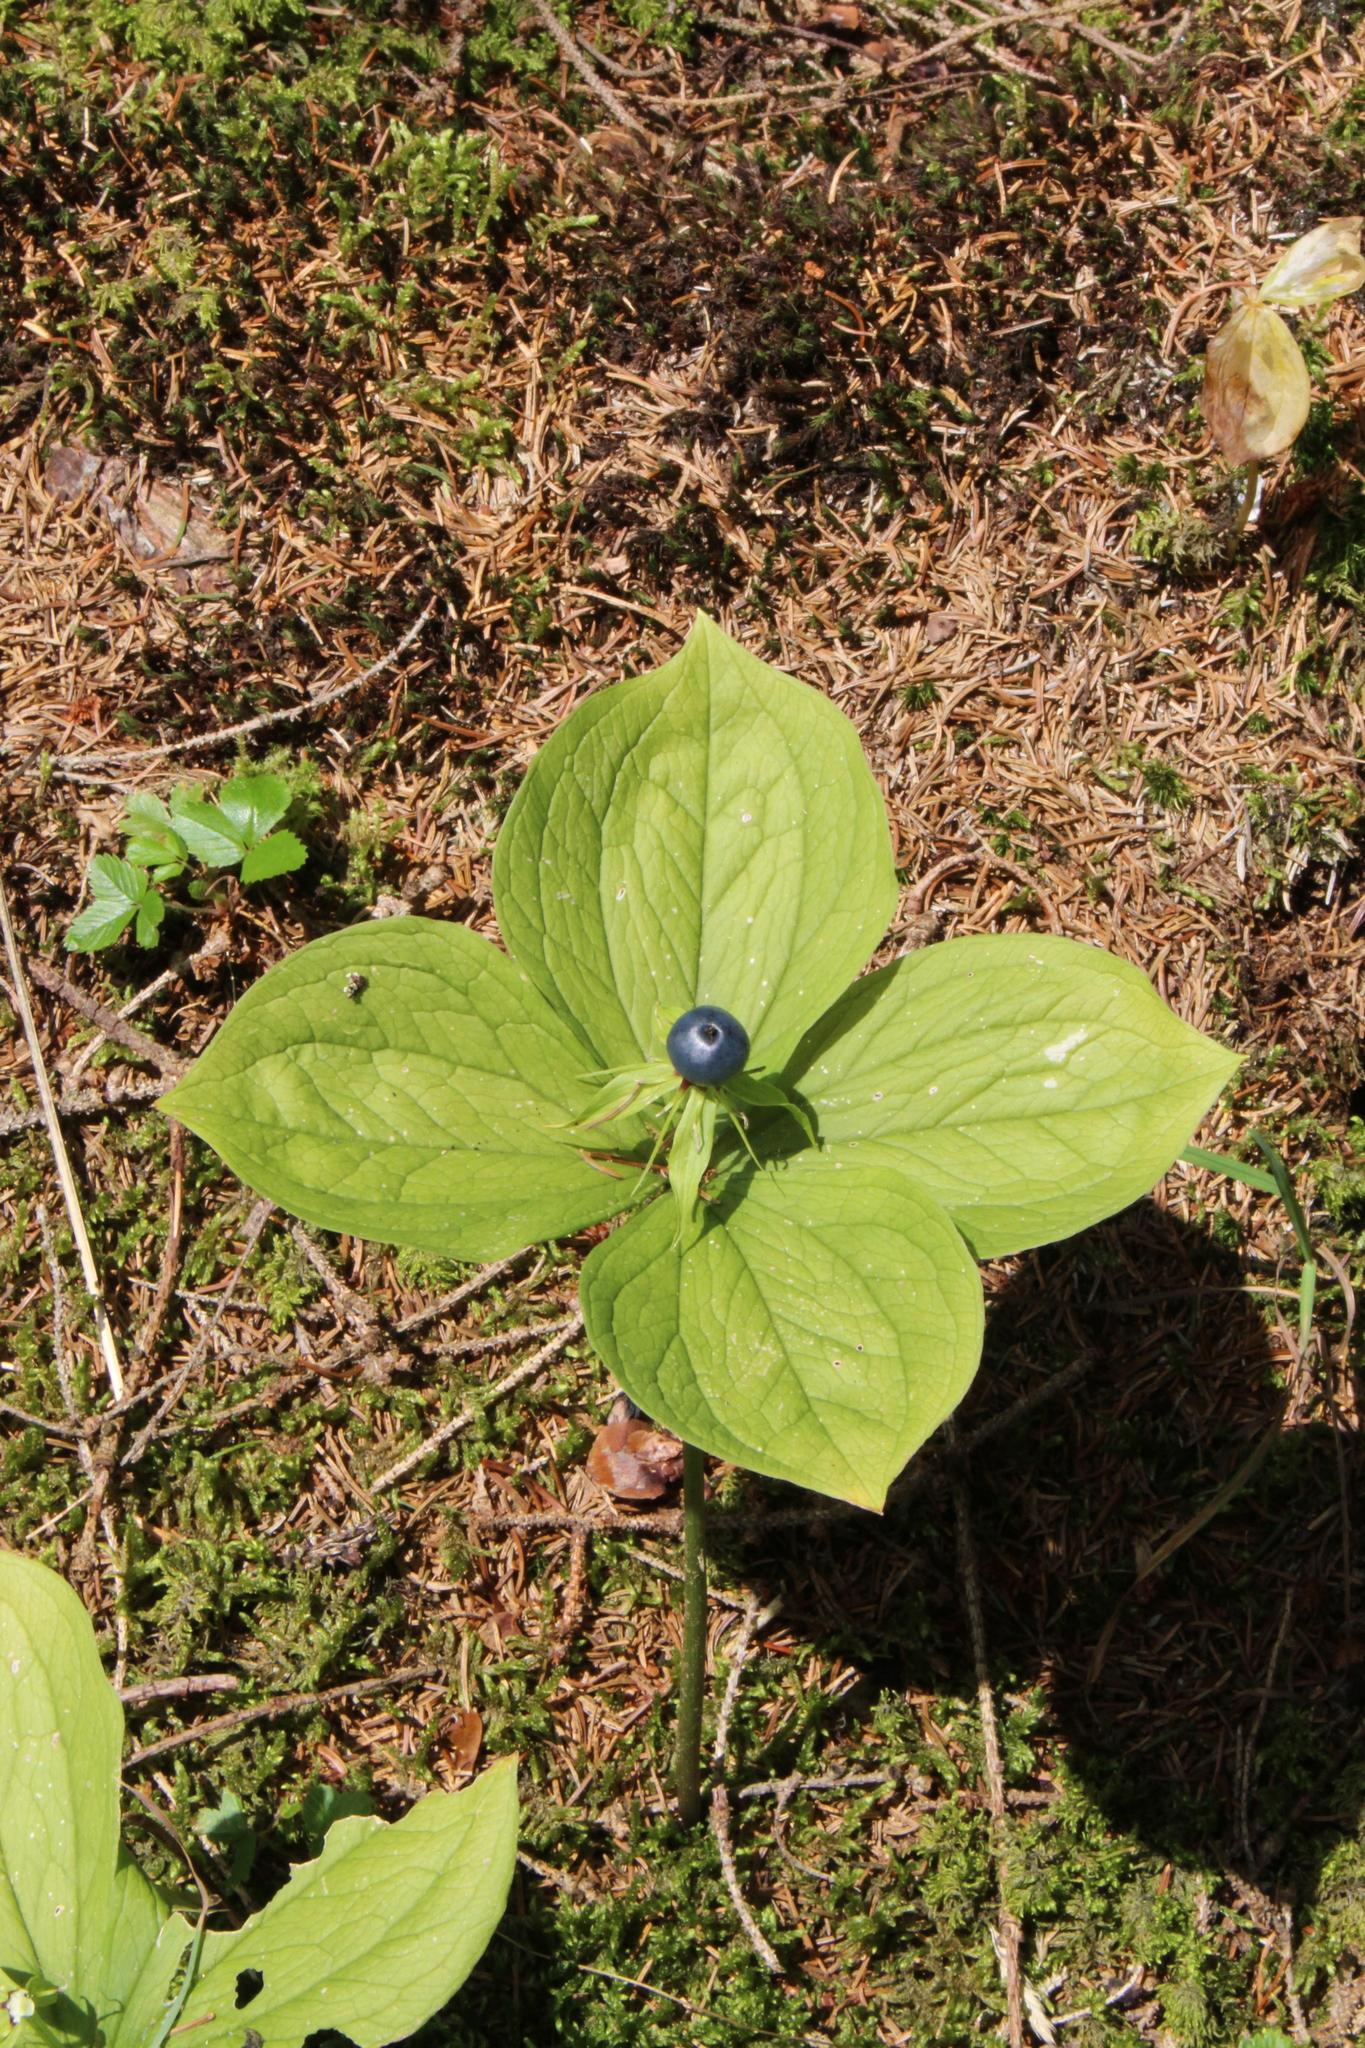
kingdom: Plantae
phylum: Tracheophyta
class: Liliopsida
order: Liliales
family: Melanthiaceae
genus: Paris
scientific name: Paris quadrifolia
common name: Herb-paris
